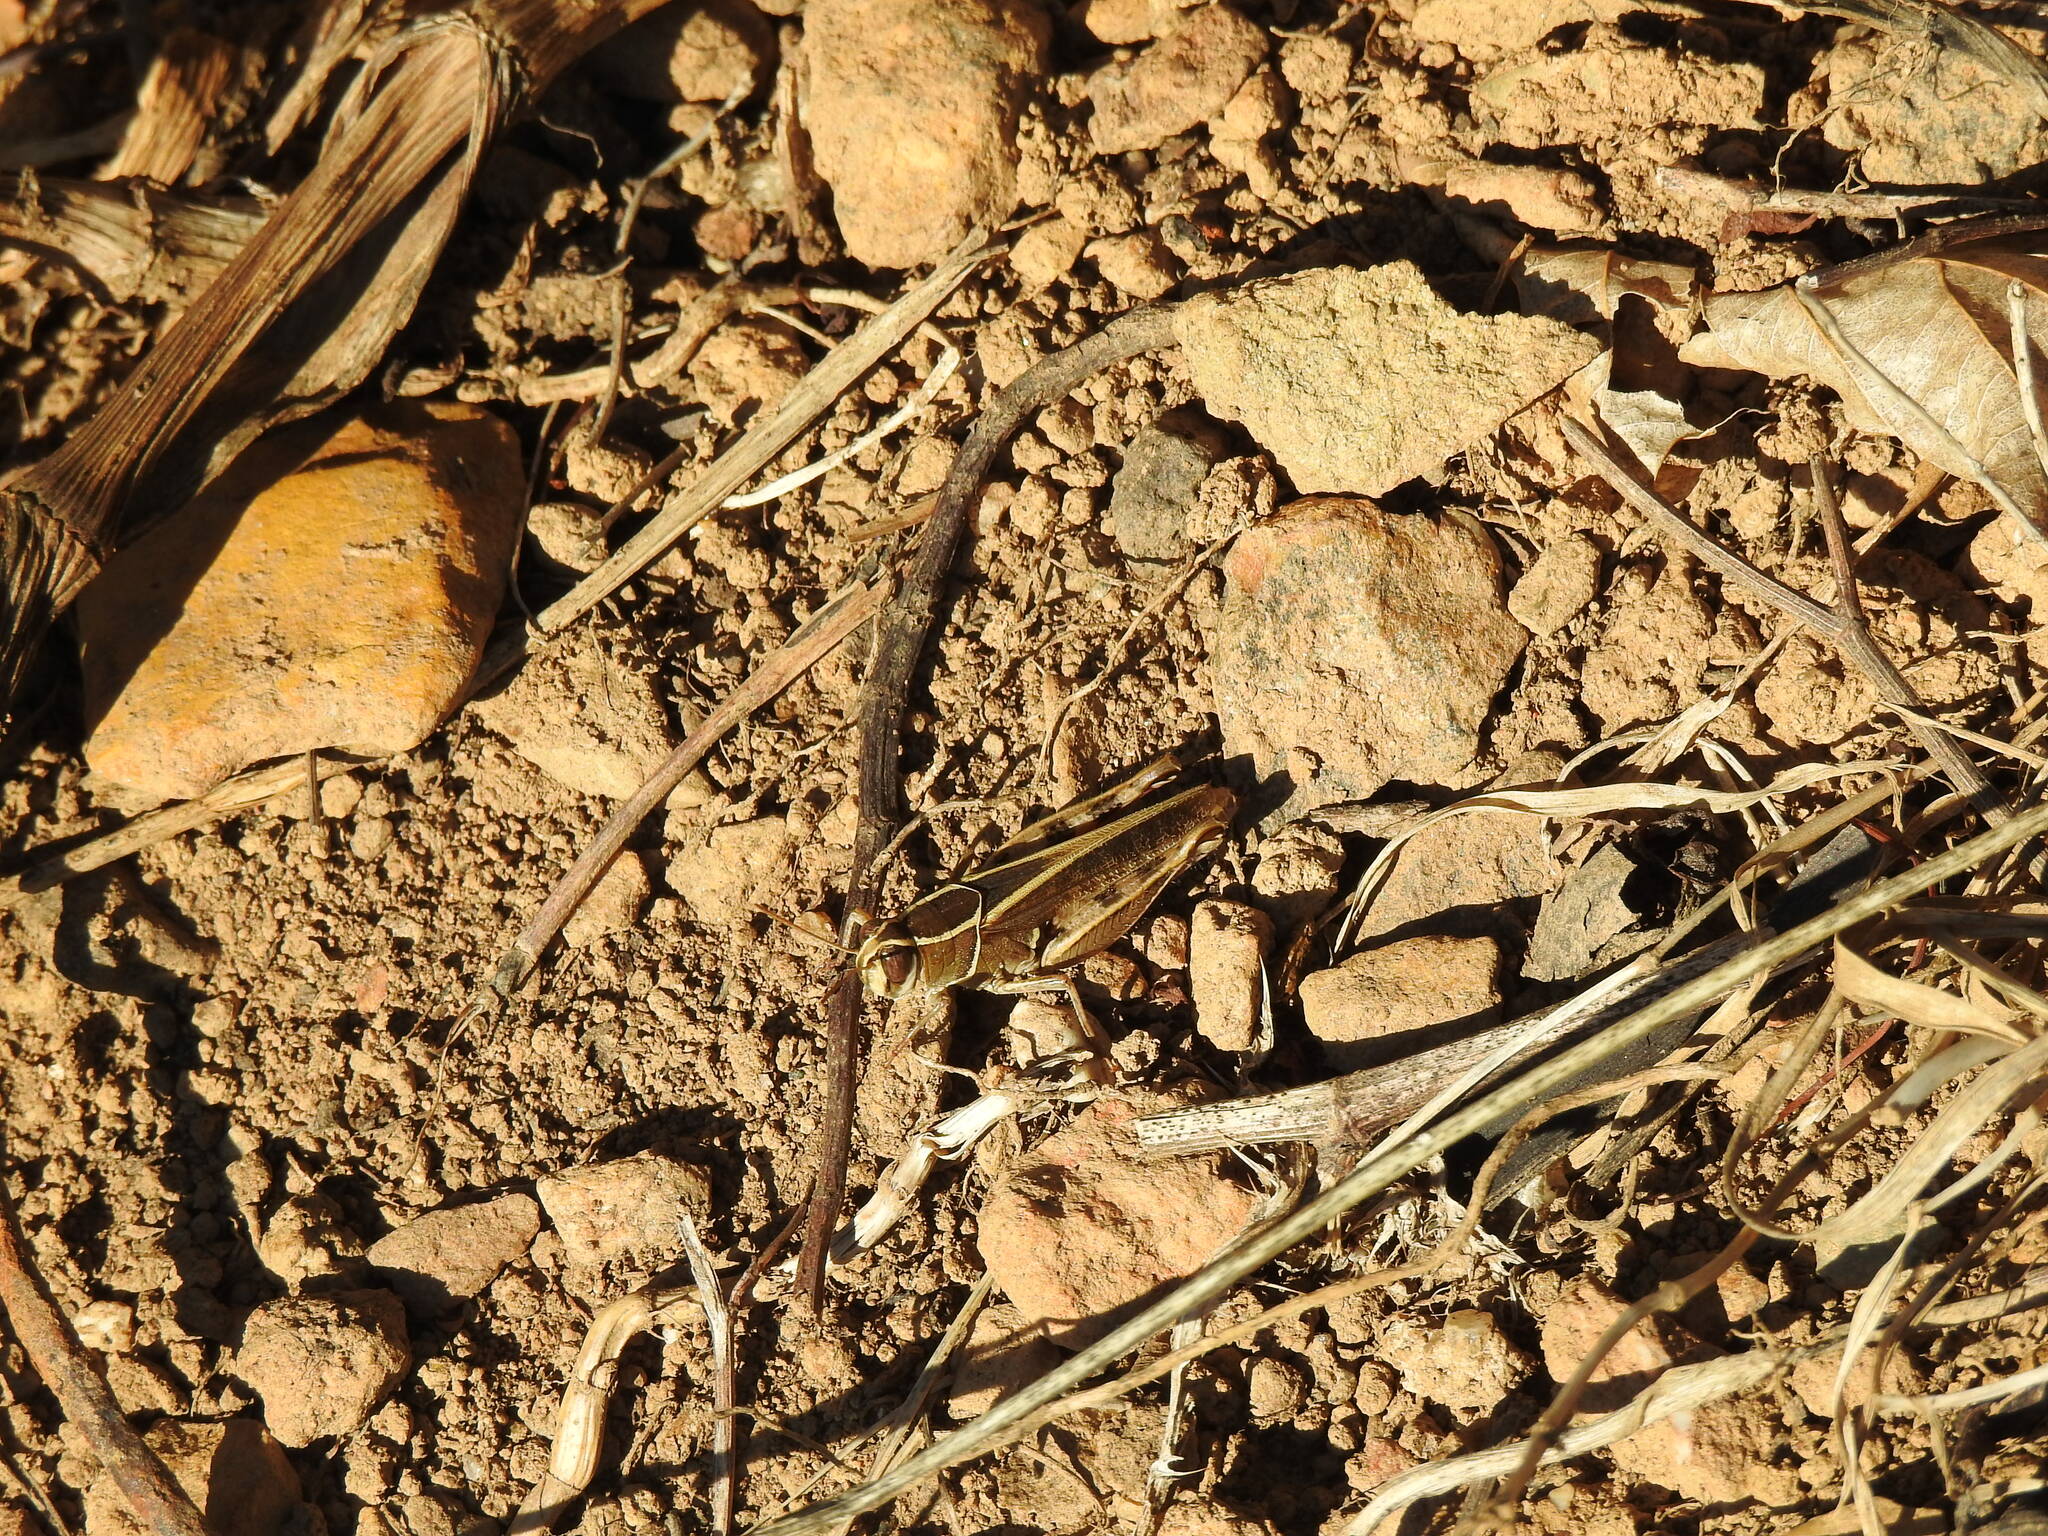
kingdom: Animalia
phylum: Arthropoda
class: Insecta
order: Orthoptera
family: Acrididae
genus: Calliptamus
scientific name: Calliptamus barbarus
